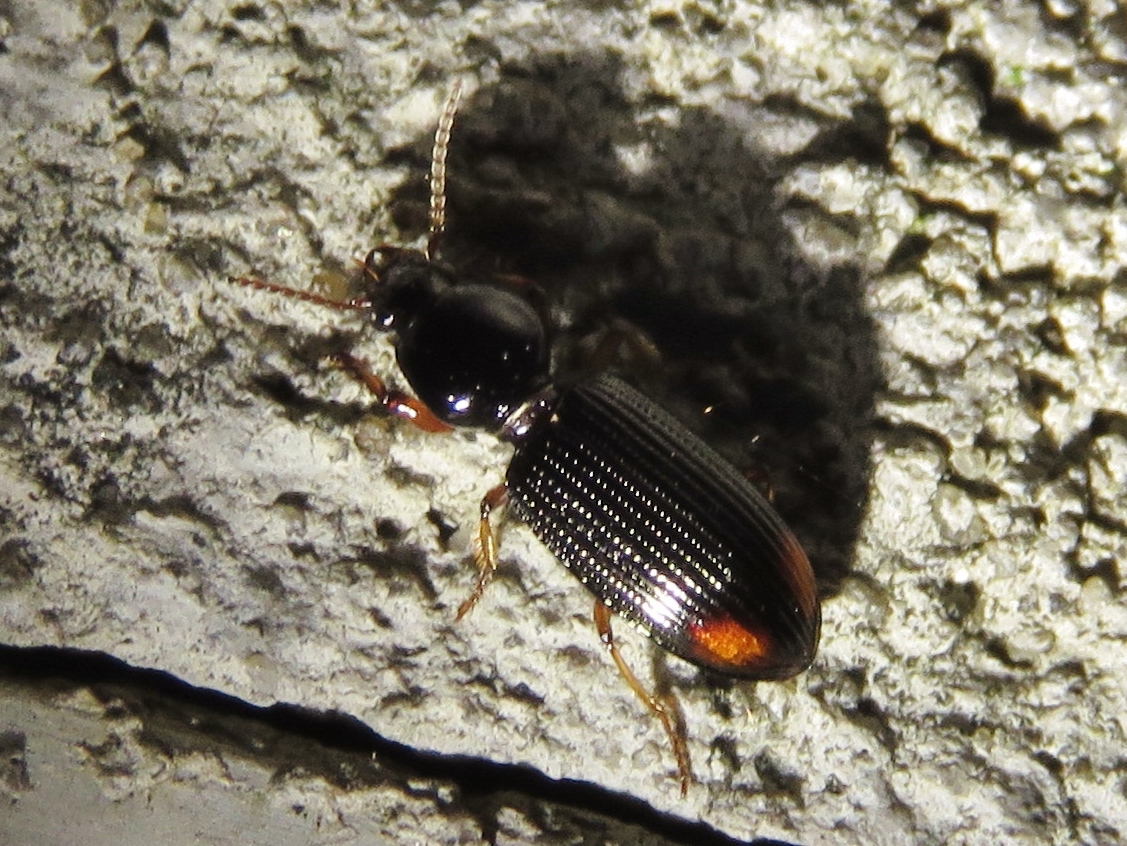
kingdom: Animalia
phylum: Arthropoda
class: Insecta
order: Coleoptera
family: Carabidae
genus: Aspidoglossa
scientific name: Aspidoglossa subangulata
